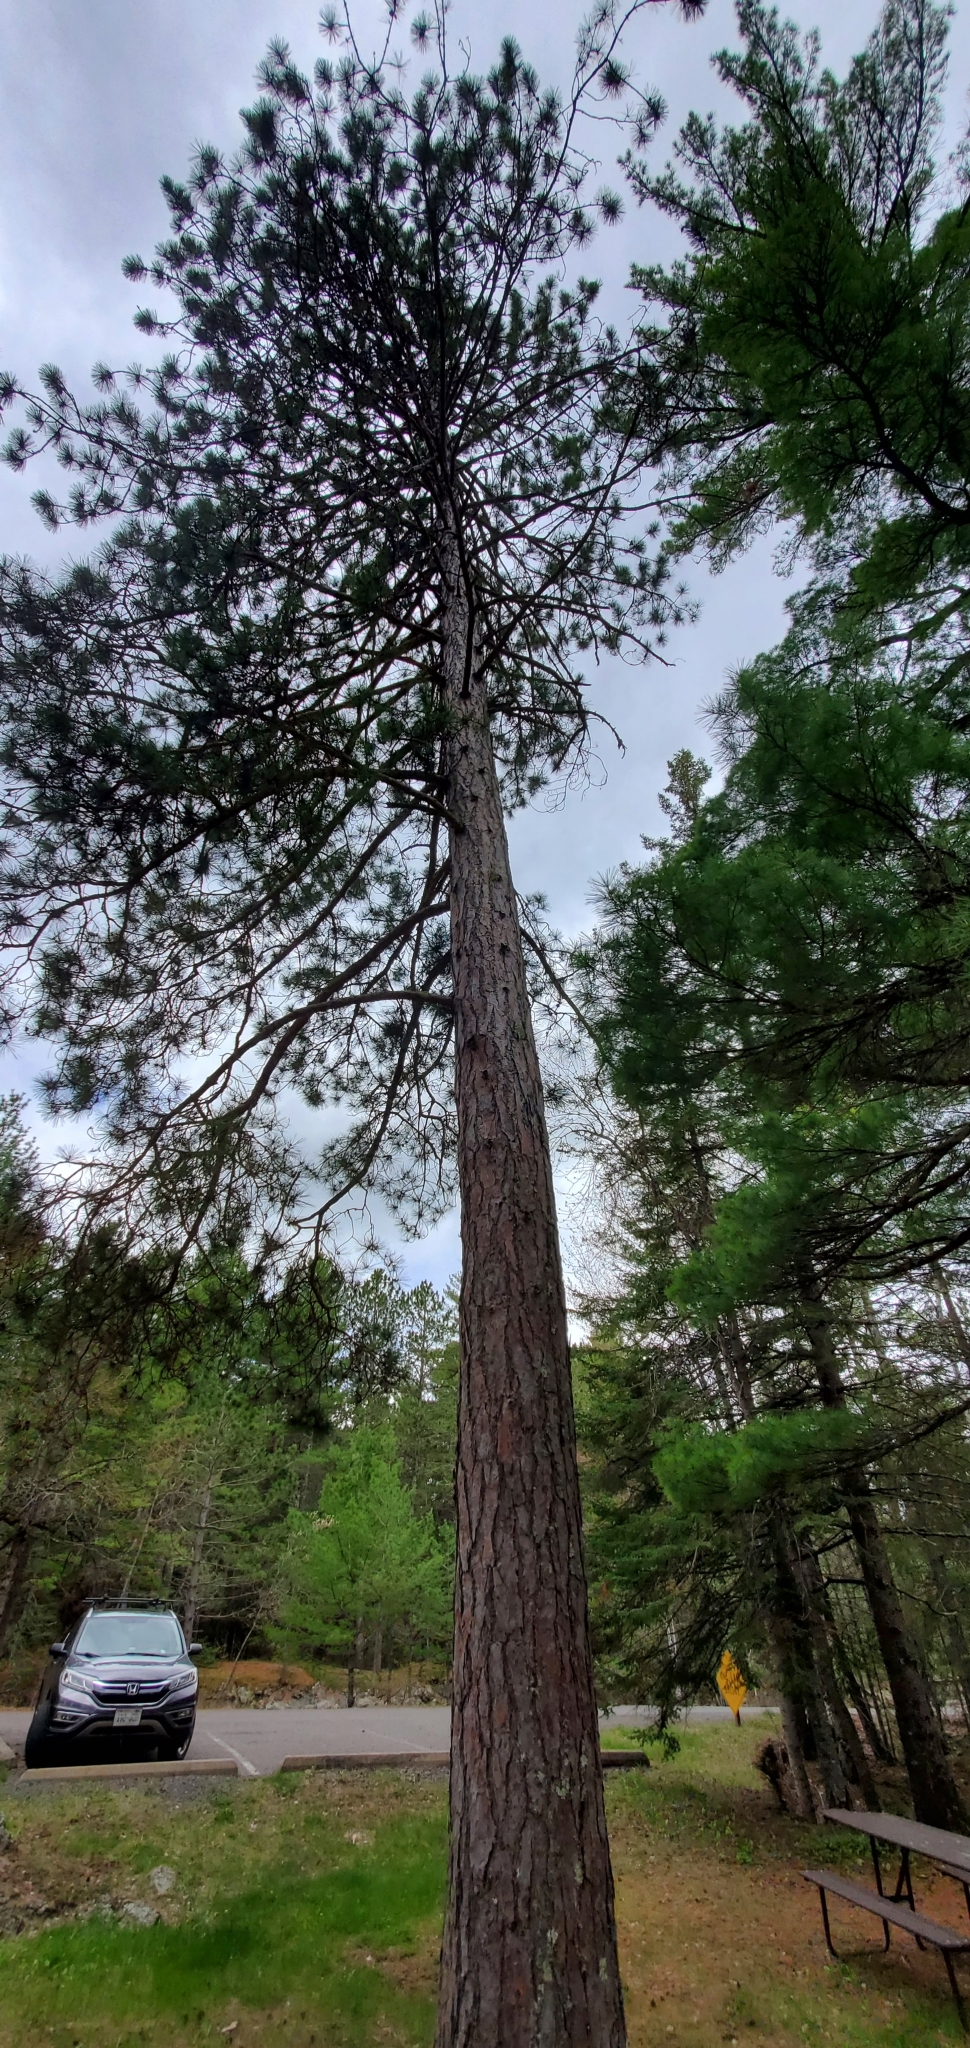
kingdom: Plantae
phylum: Tracheophyta
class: Pinopsida
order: Pinales
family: Pinaceae
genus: Pinus
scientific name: Pinus resinosa
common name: Norway pine
